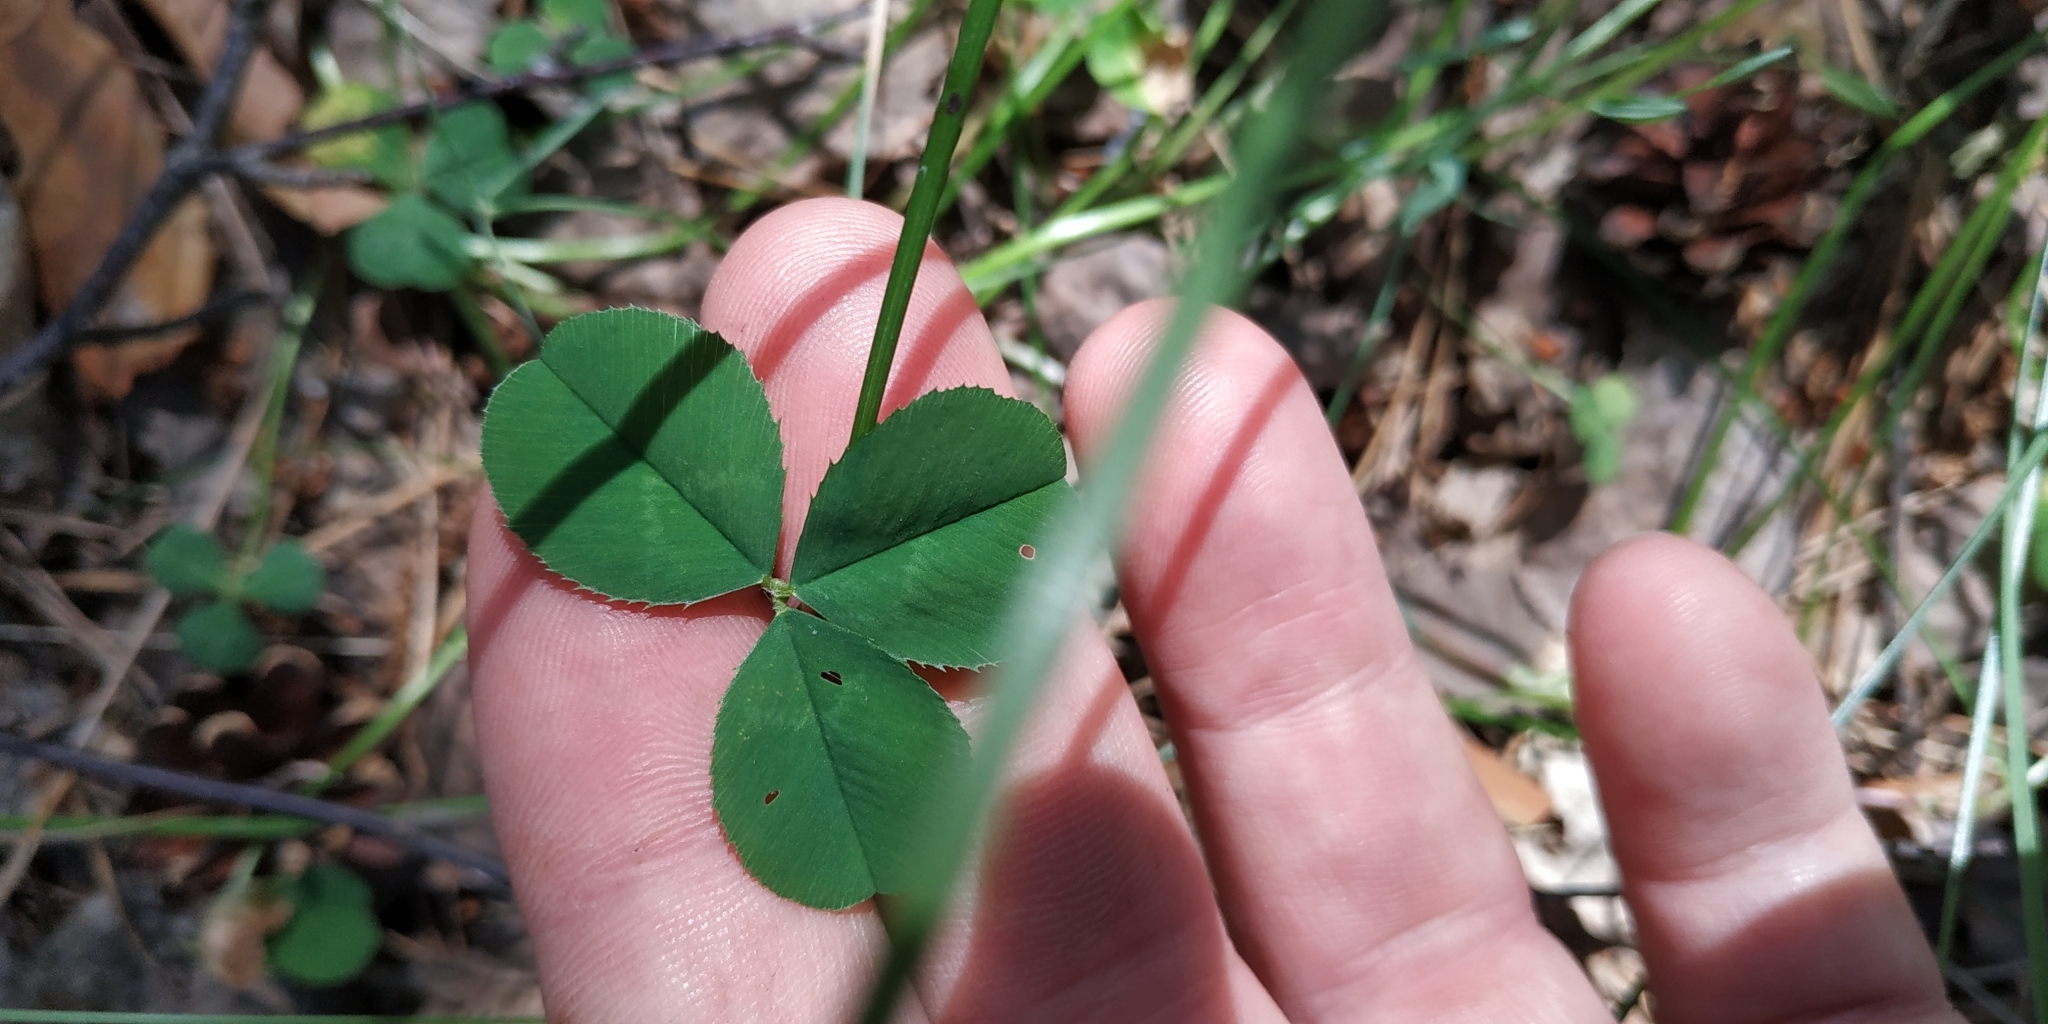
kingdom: Plantae
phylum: Tracheophyta
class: Magnoliopsida
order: Fabales
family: Fabaceae
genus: Trifolium
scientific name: Trifolium repens
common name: White clover
